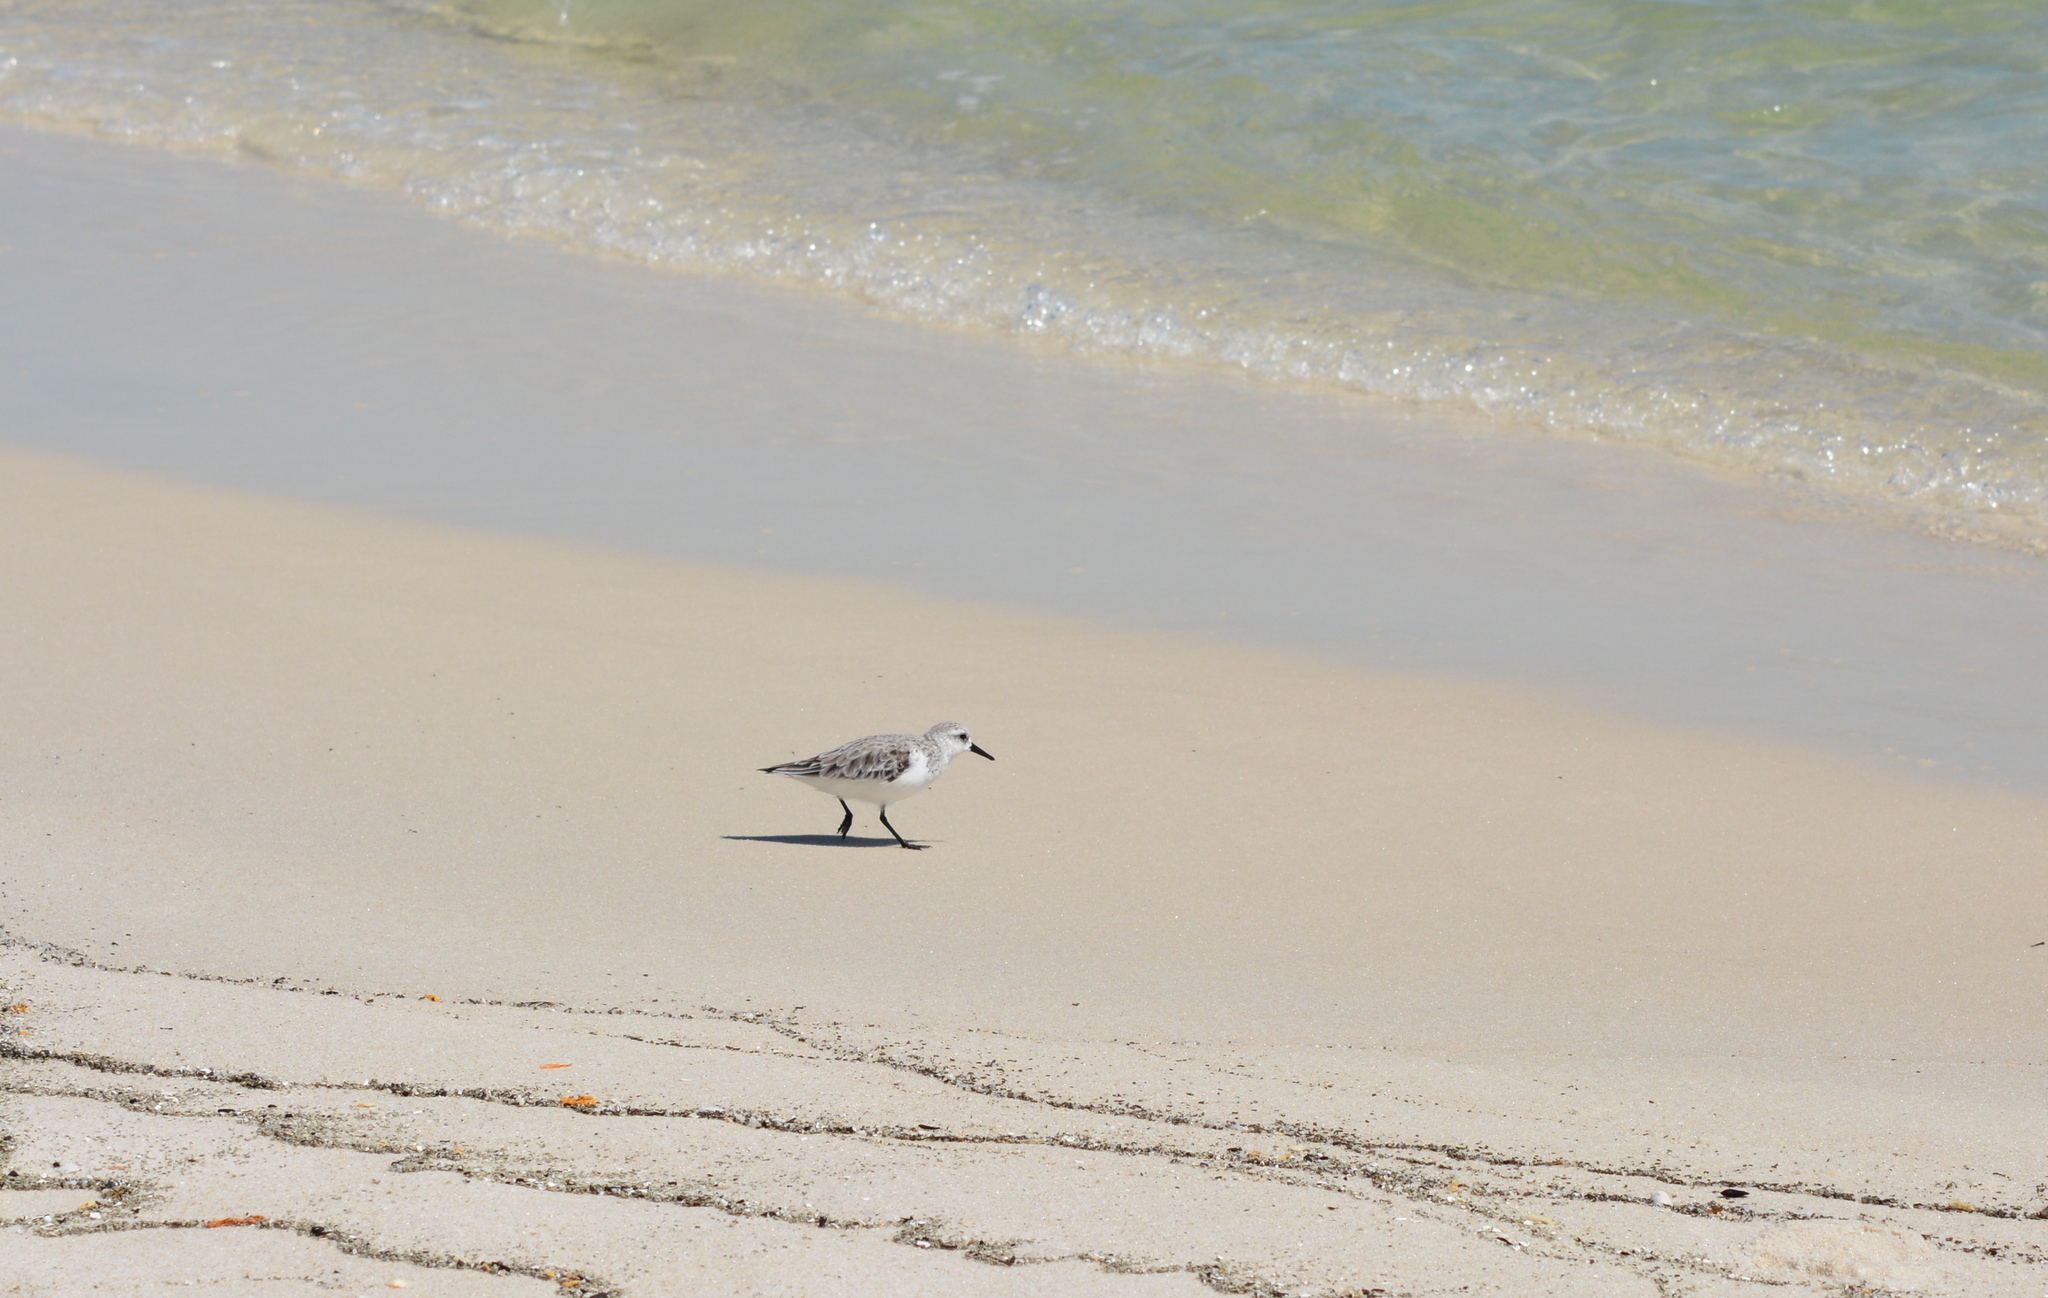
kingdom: Animalia
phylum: Chordata
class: Aves
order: Charadriiformes
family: Scolopacidae
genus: Calidris
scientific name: Calidris alba
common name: Sanderling
